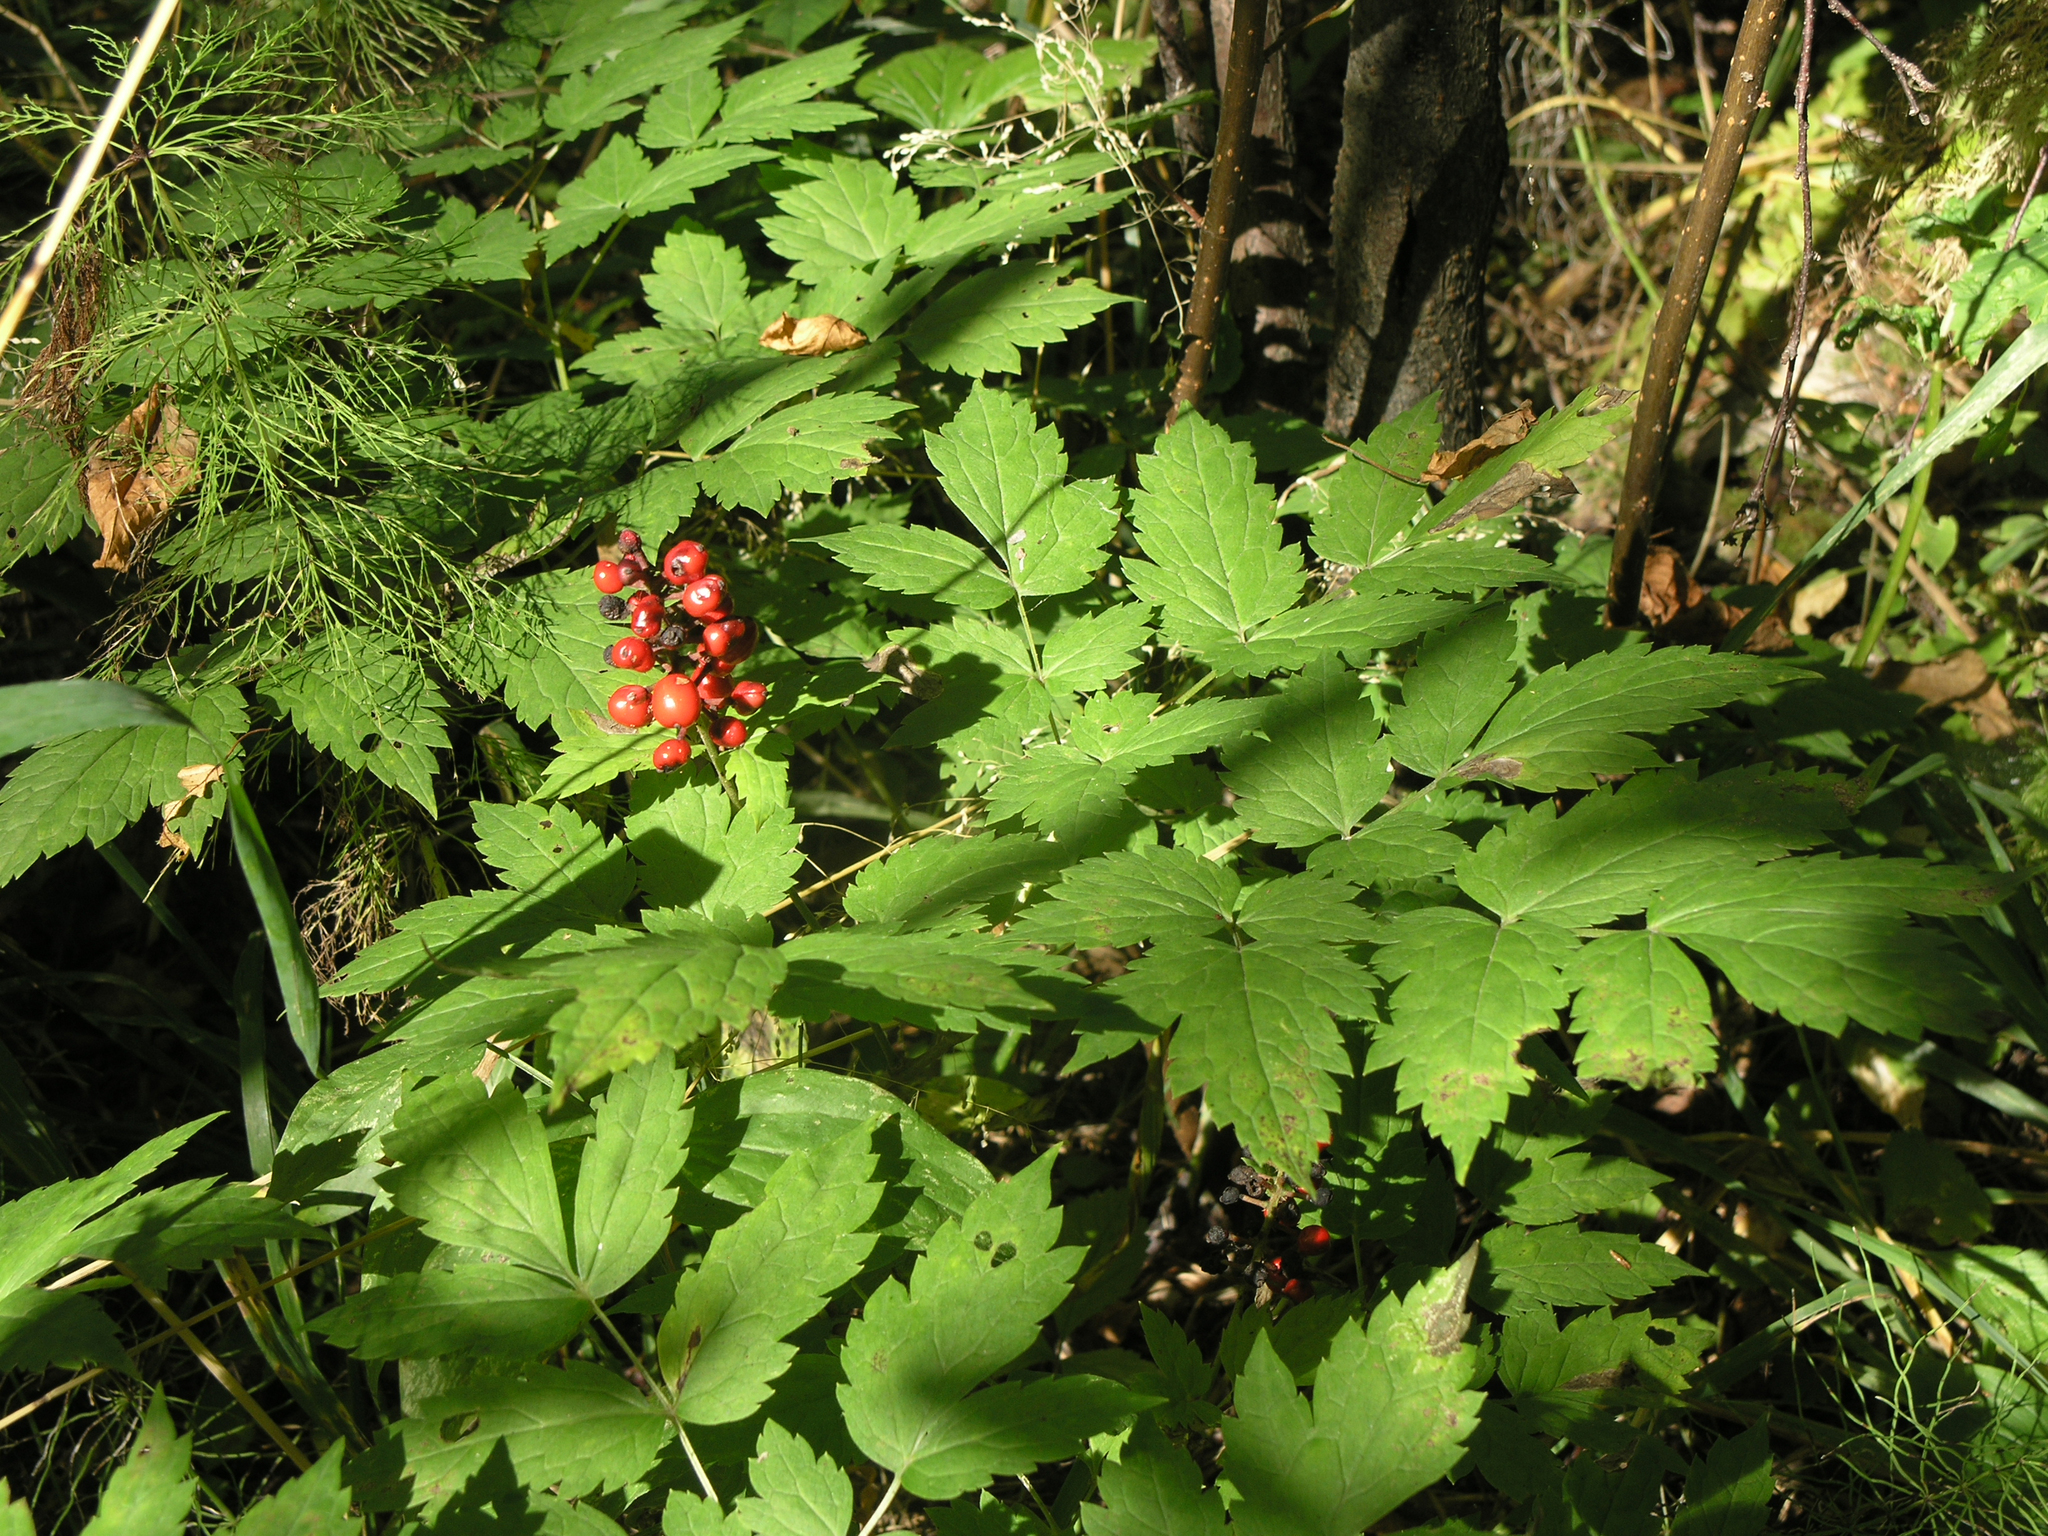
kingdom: Plantae
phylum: Tracheophyta
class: Magnoliopsida
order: Ranunculales
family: Ranunculaceae
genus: Actaea
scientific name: Actaea erythrocarpa
